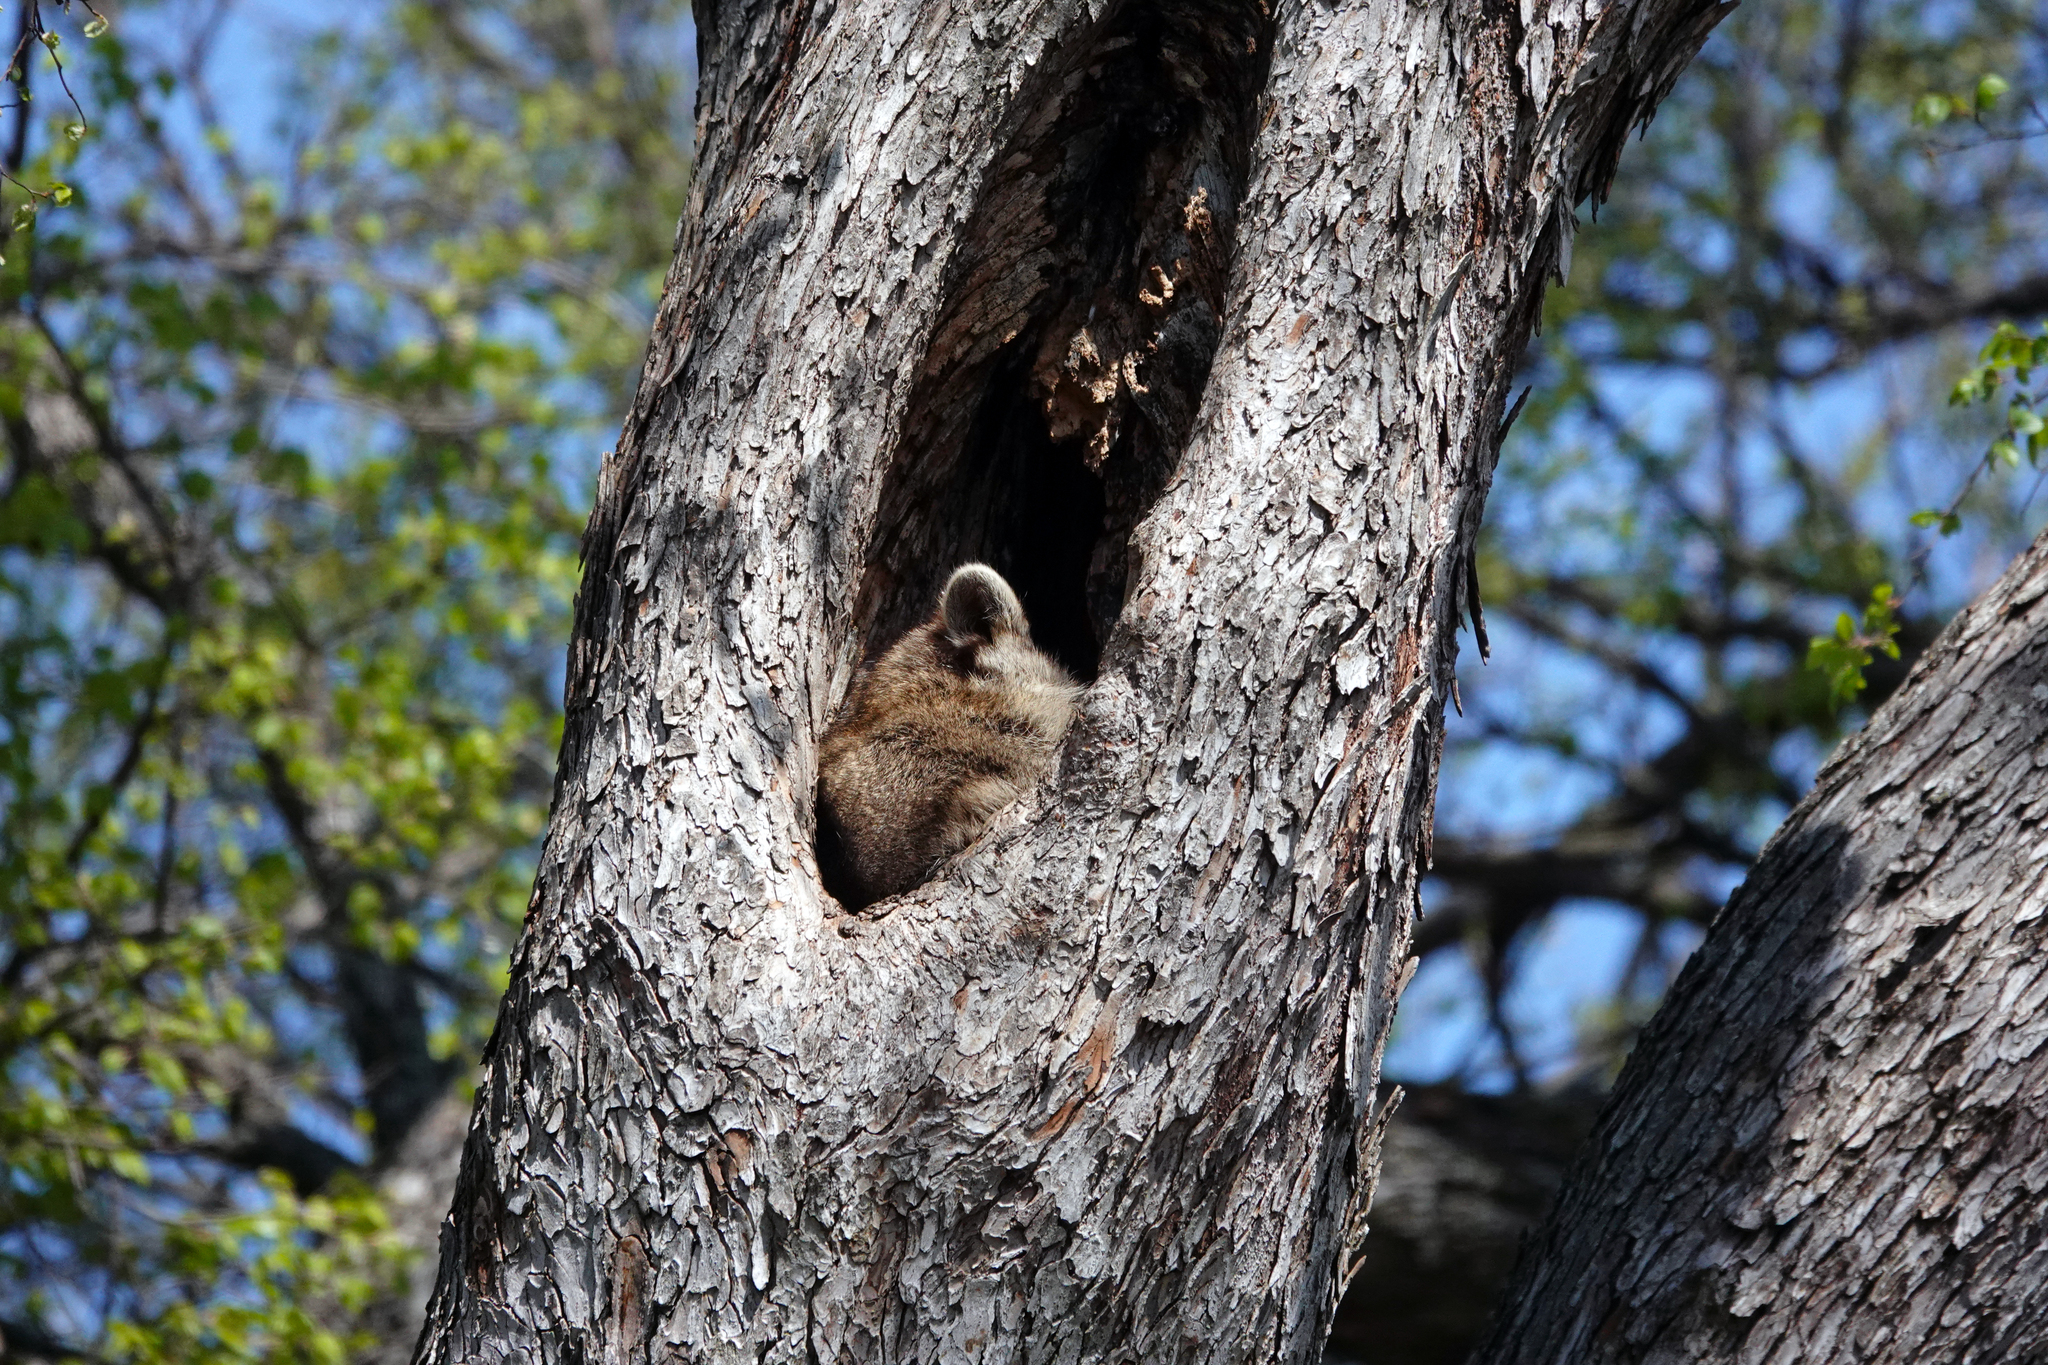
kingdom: Animalia
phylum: Chordata
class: Mammalia
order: Carnivora
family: Procyonidae
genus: Procyon
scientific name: Procyon lotor
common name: Raccoon
